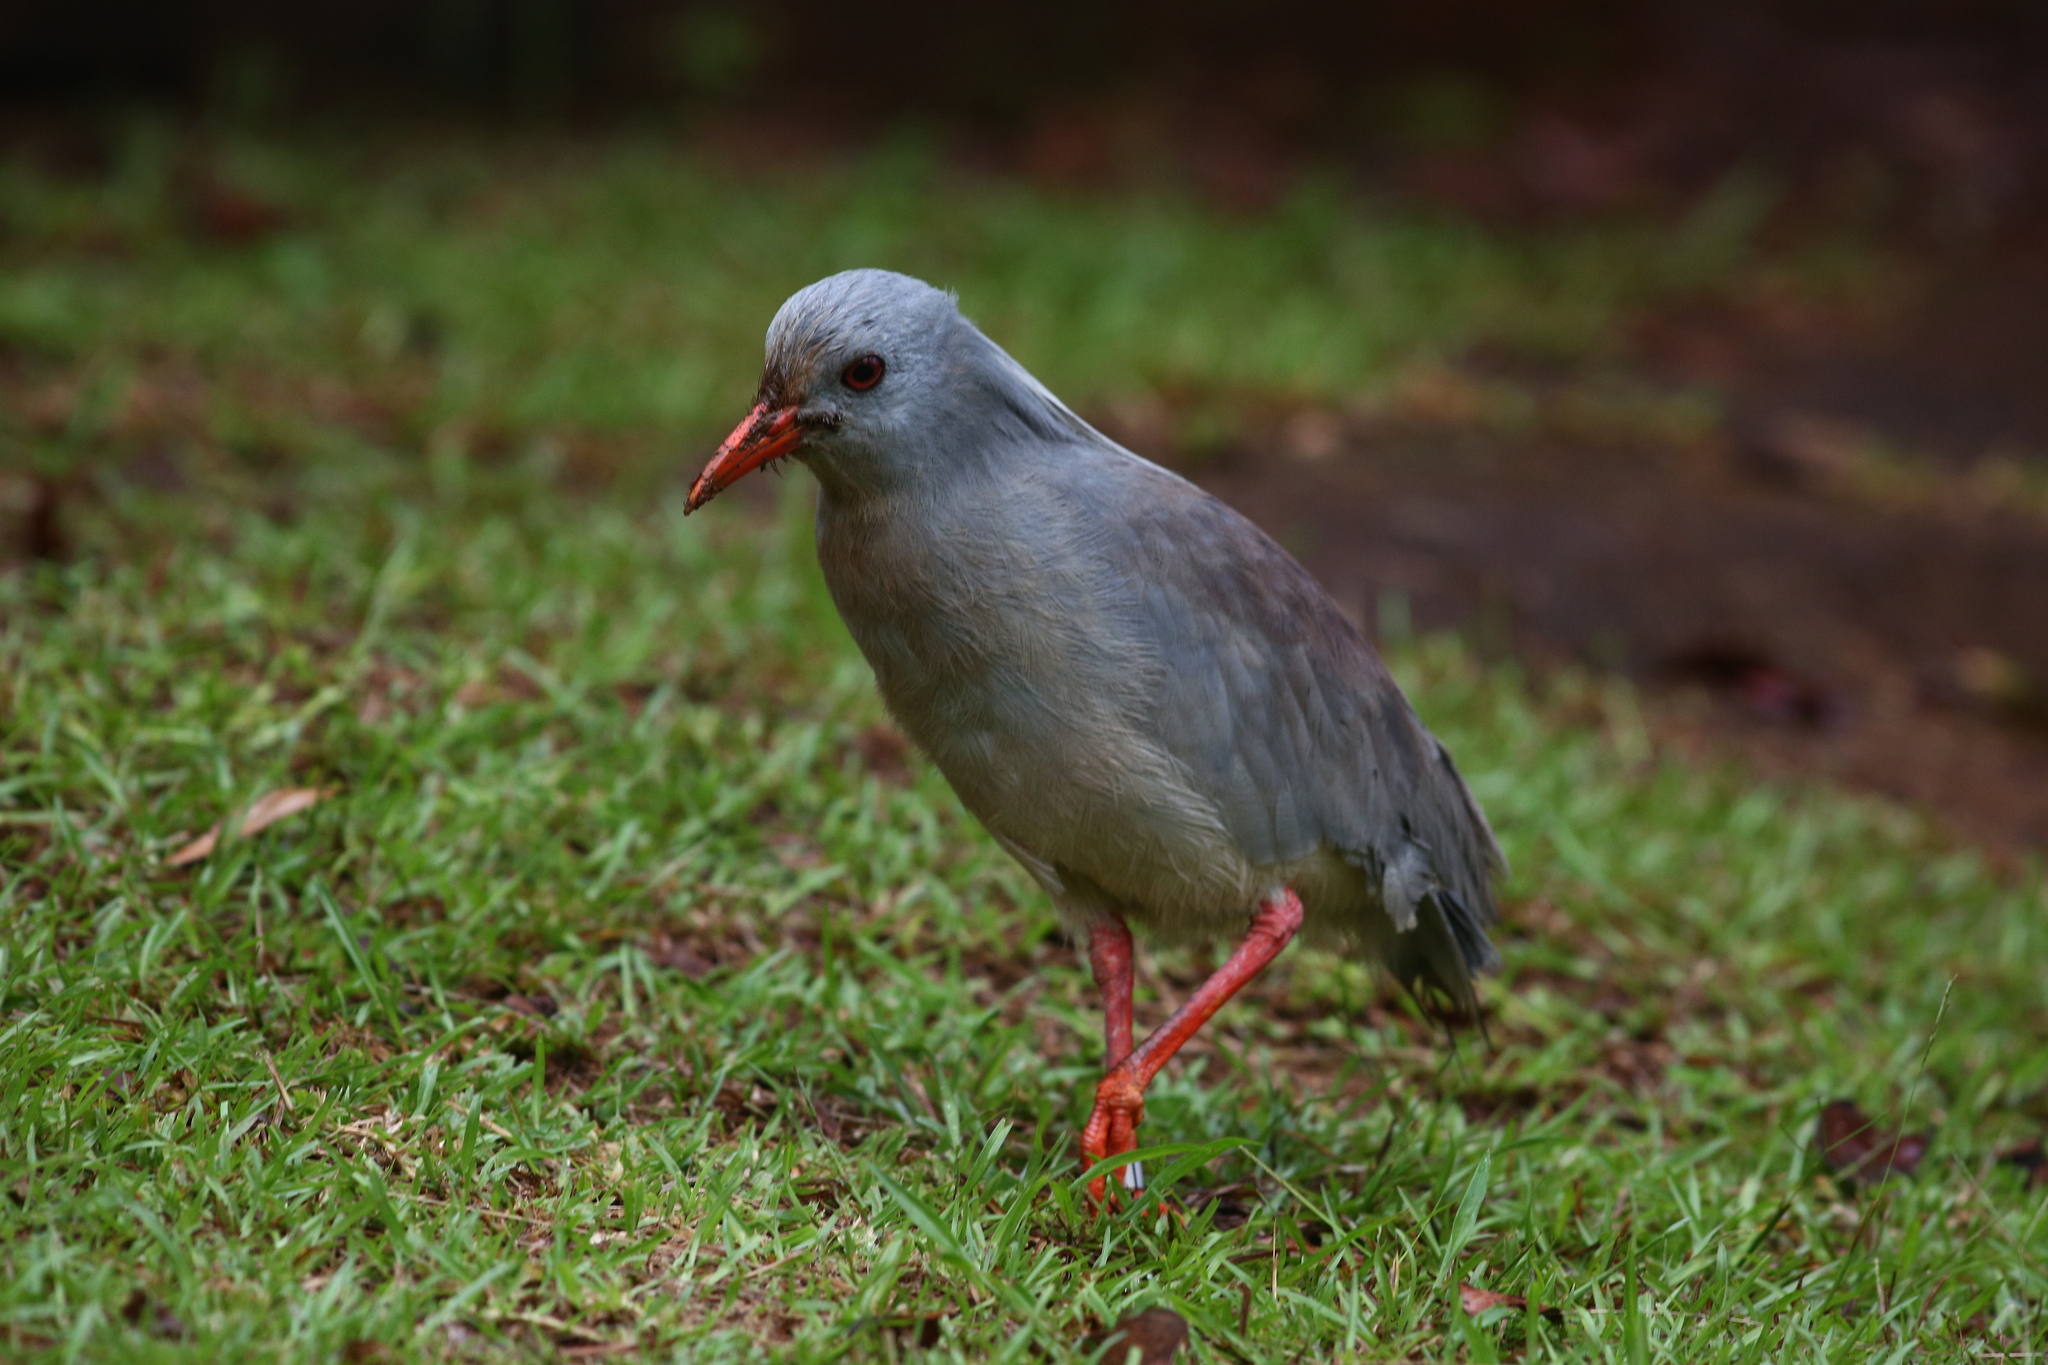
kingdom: Animalia
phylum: Chordata
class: Aves
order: Eurypygiformes
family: Rhynochetidae
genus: Rhynochetos
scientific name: Rhynochetos jubatus
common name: Kagu
